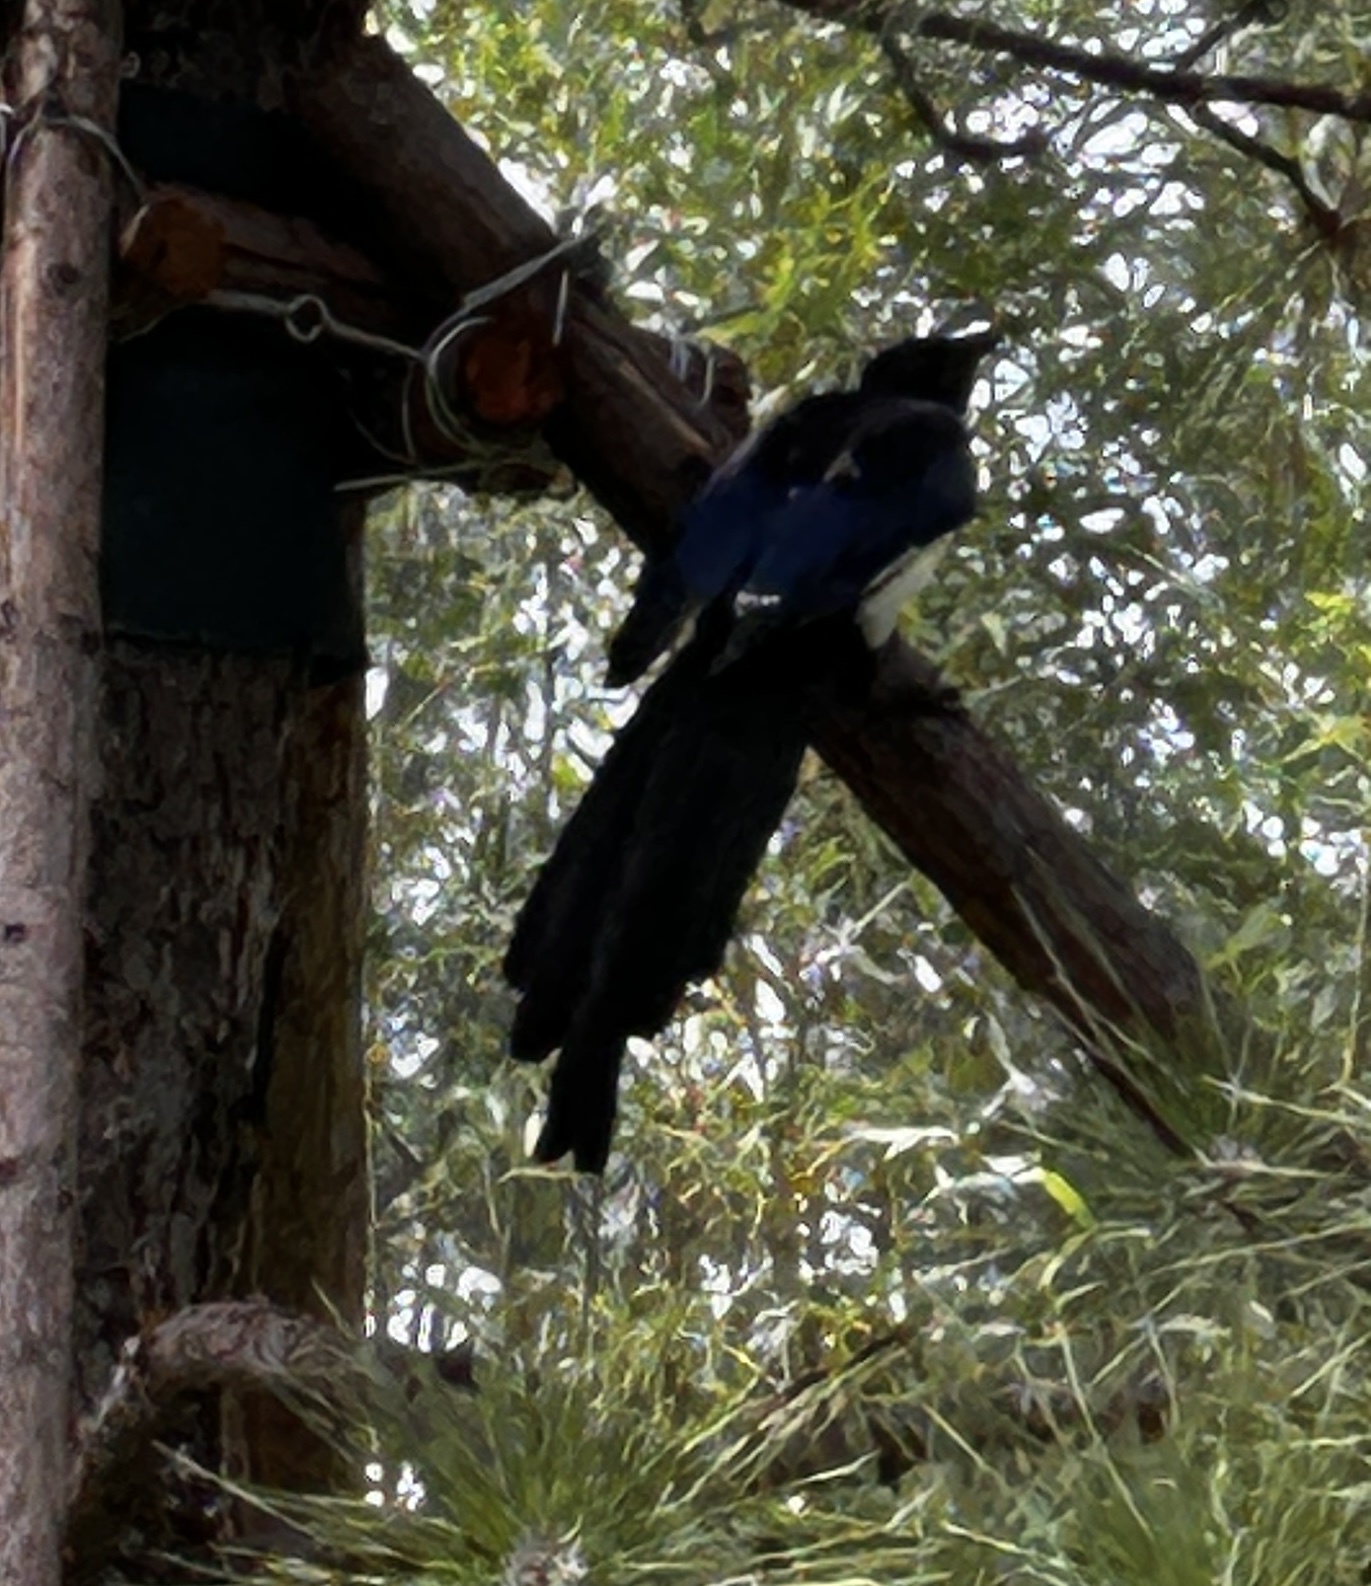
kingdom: Animalia
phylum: Chordata
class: Aves
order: Passeriformes
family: Corvidae
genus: Pica
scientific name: Pica serica
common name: Oriental magpie
